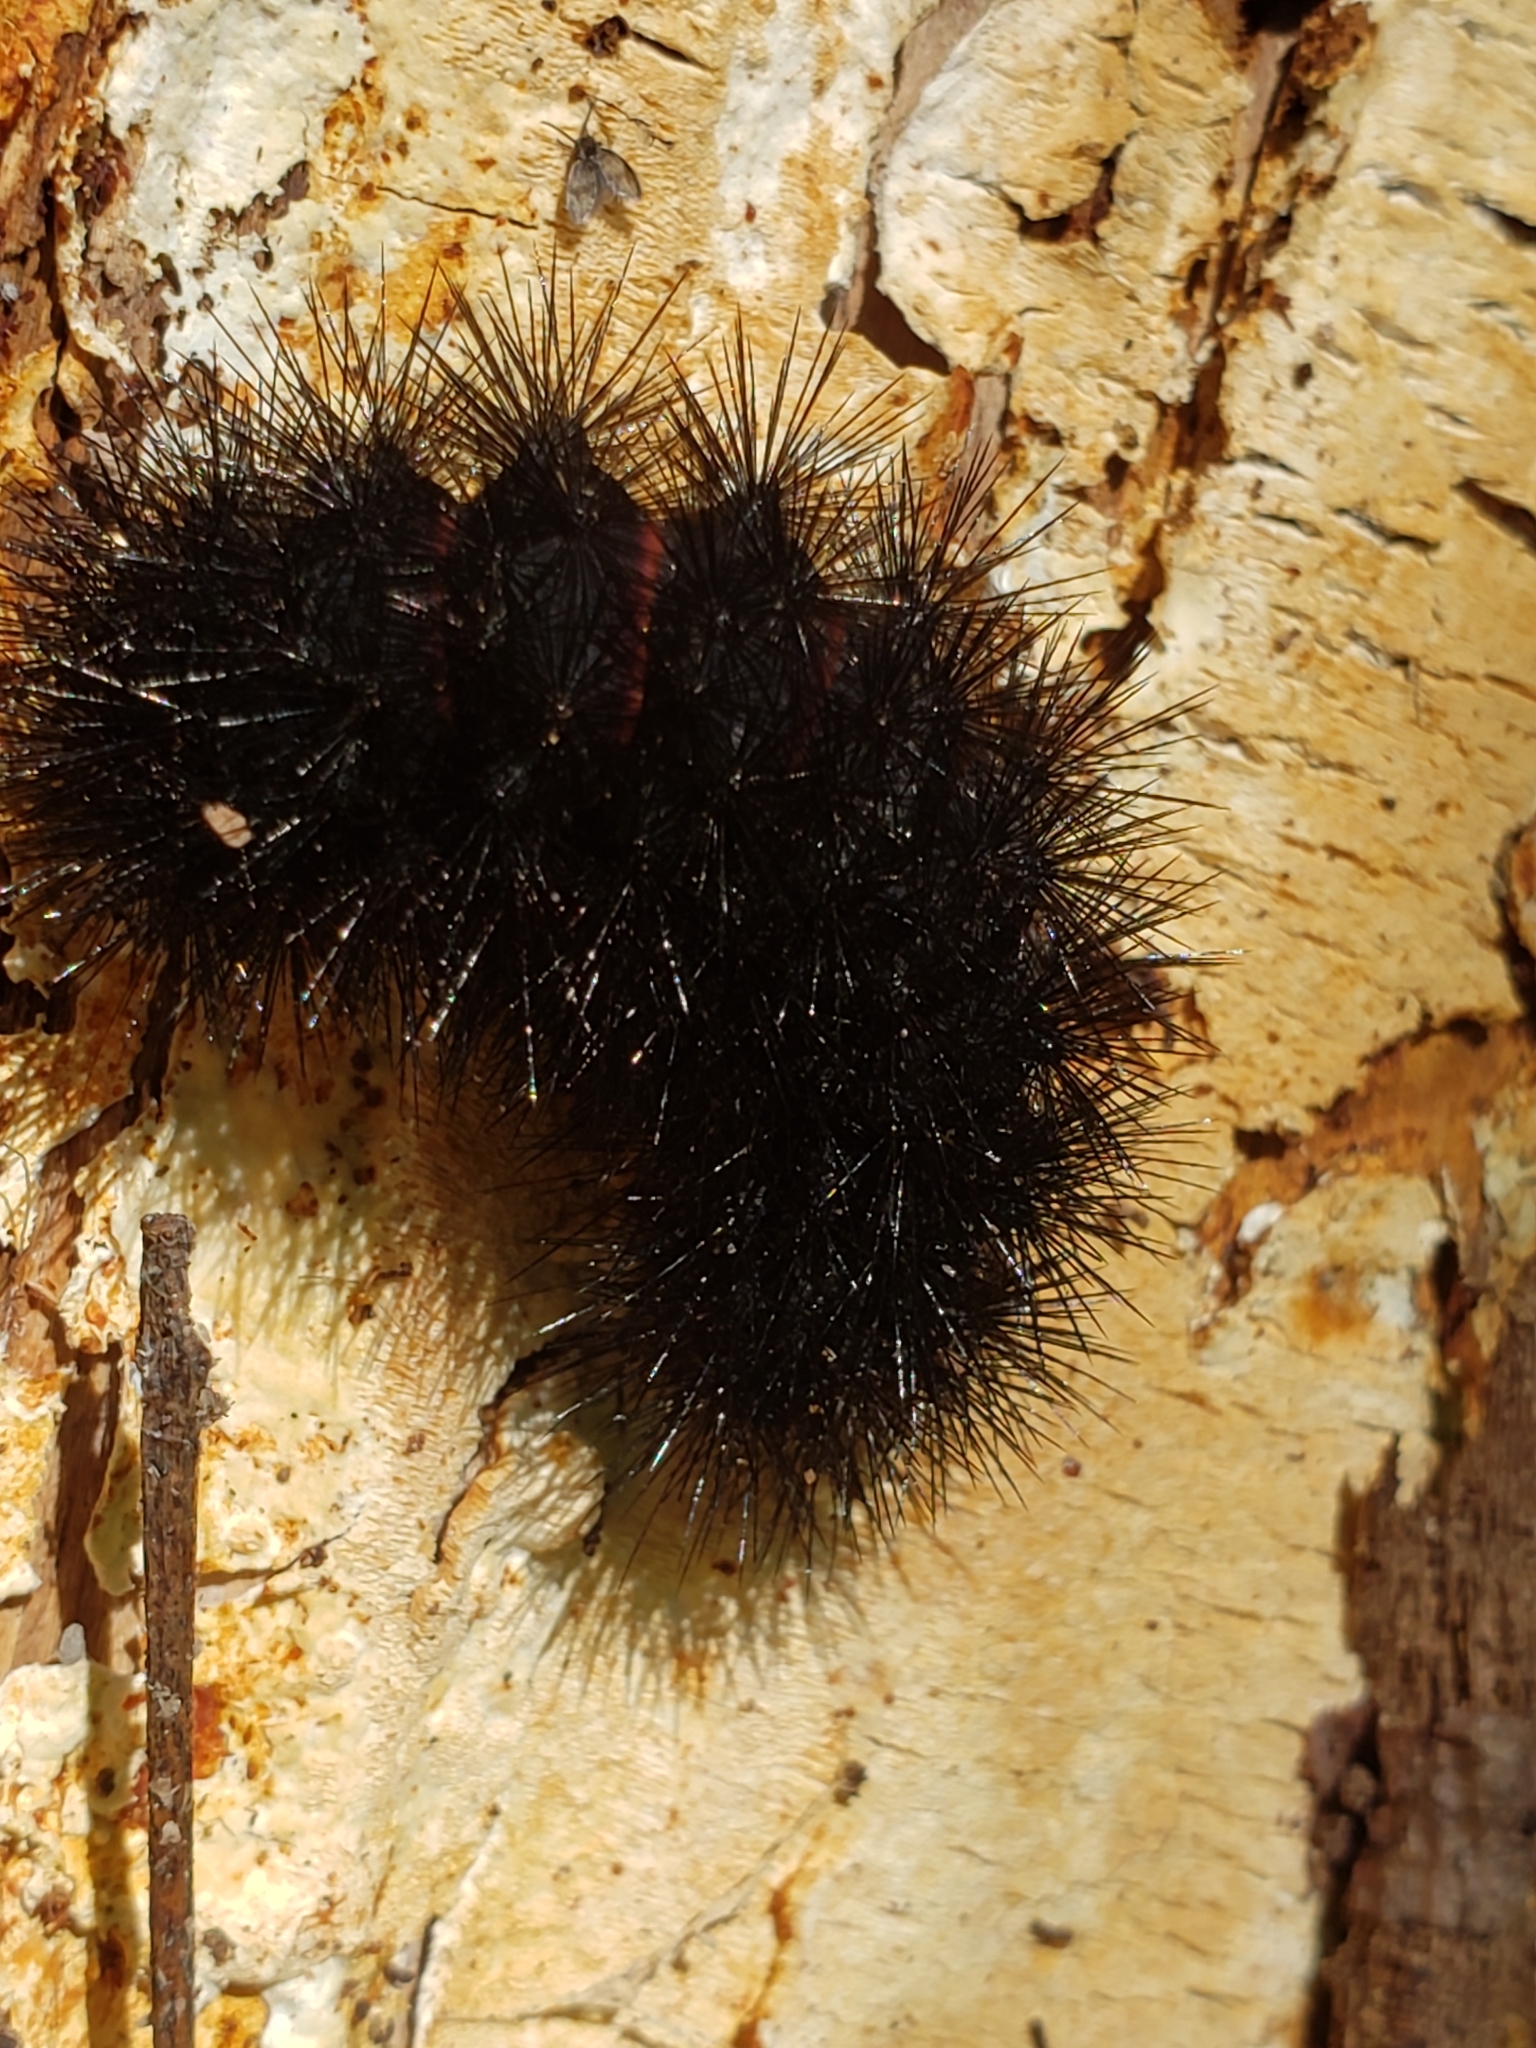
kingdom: Animalia
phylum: Arthropoda
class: Insecta
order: Lepidoptera
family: Erebidae
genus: Hypercompe
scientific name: Hypercompe scribonia
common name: Giant leopard moth
